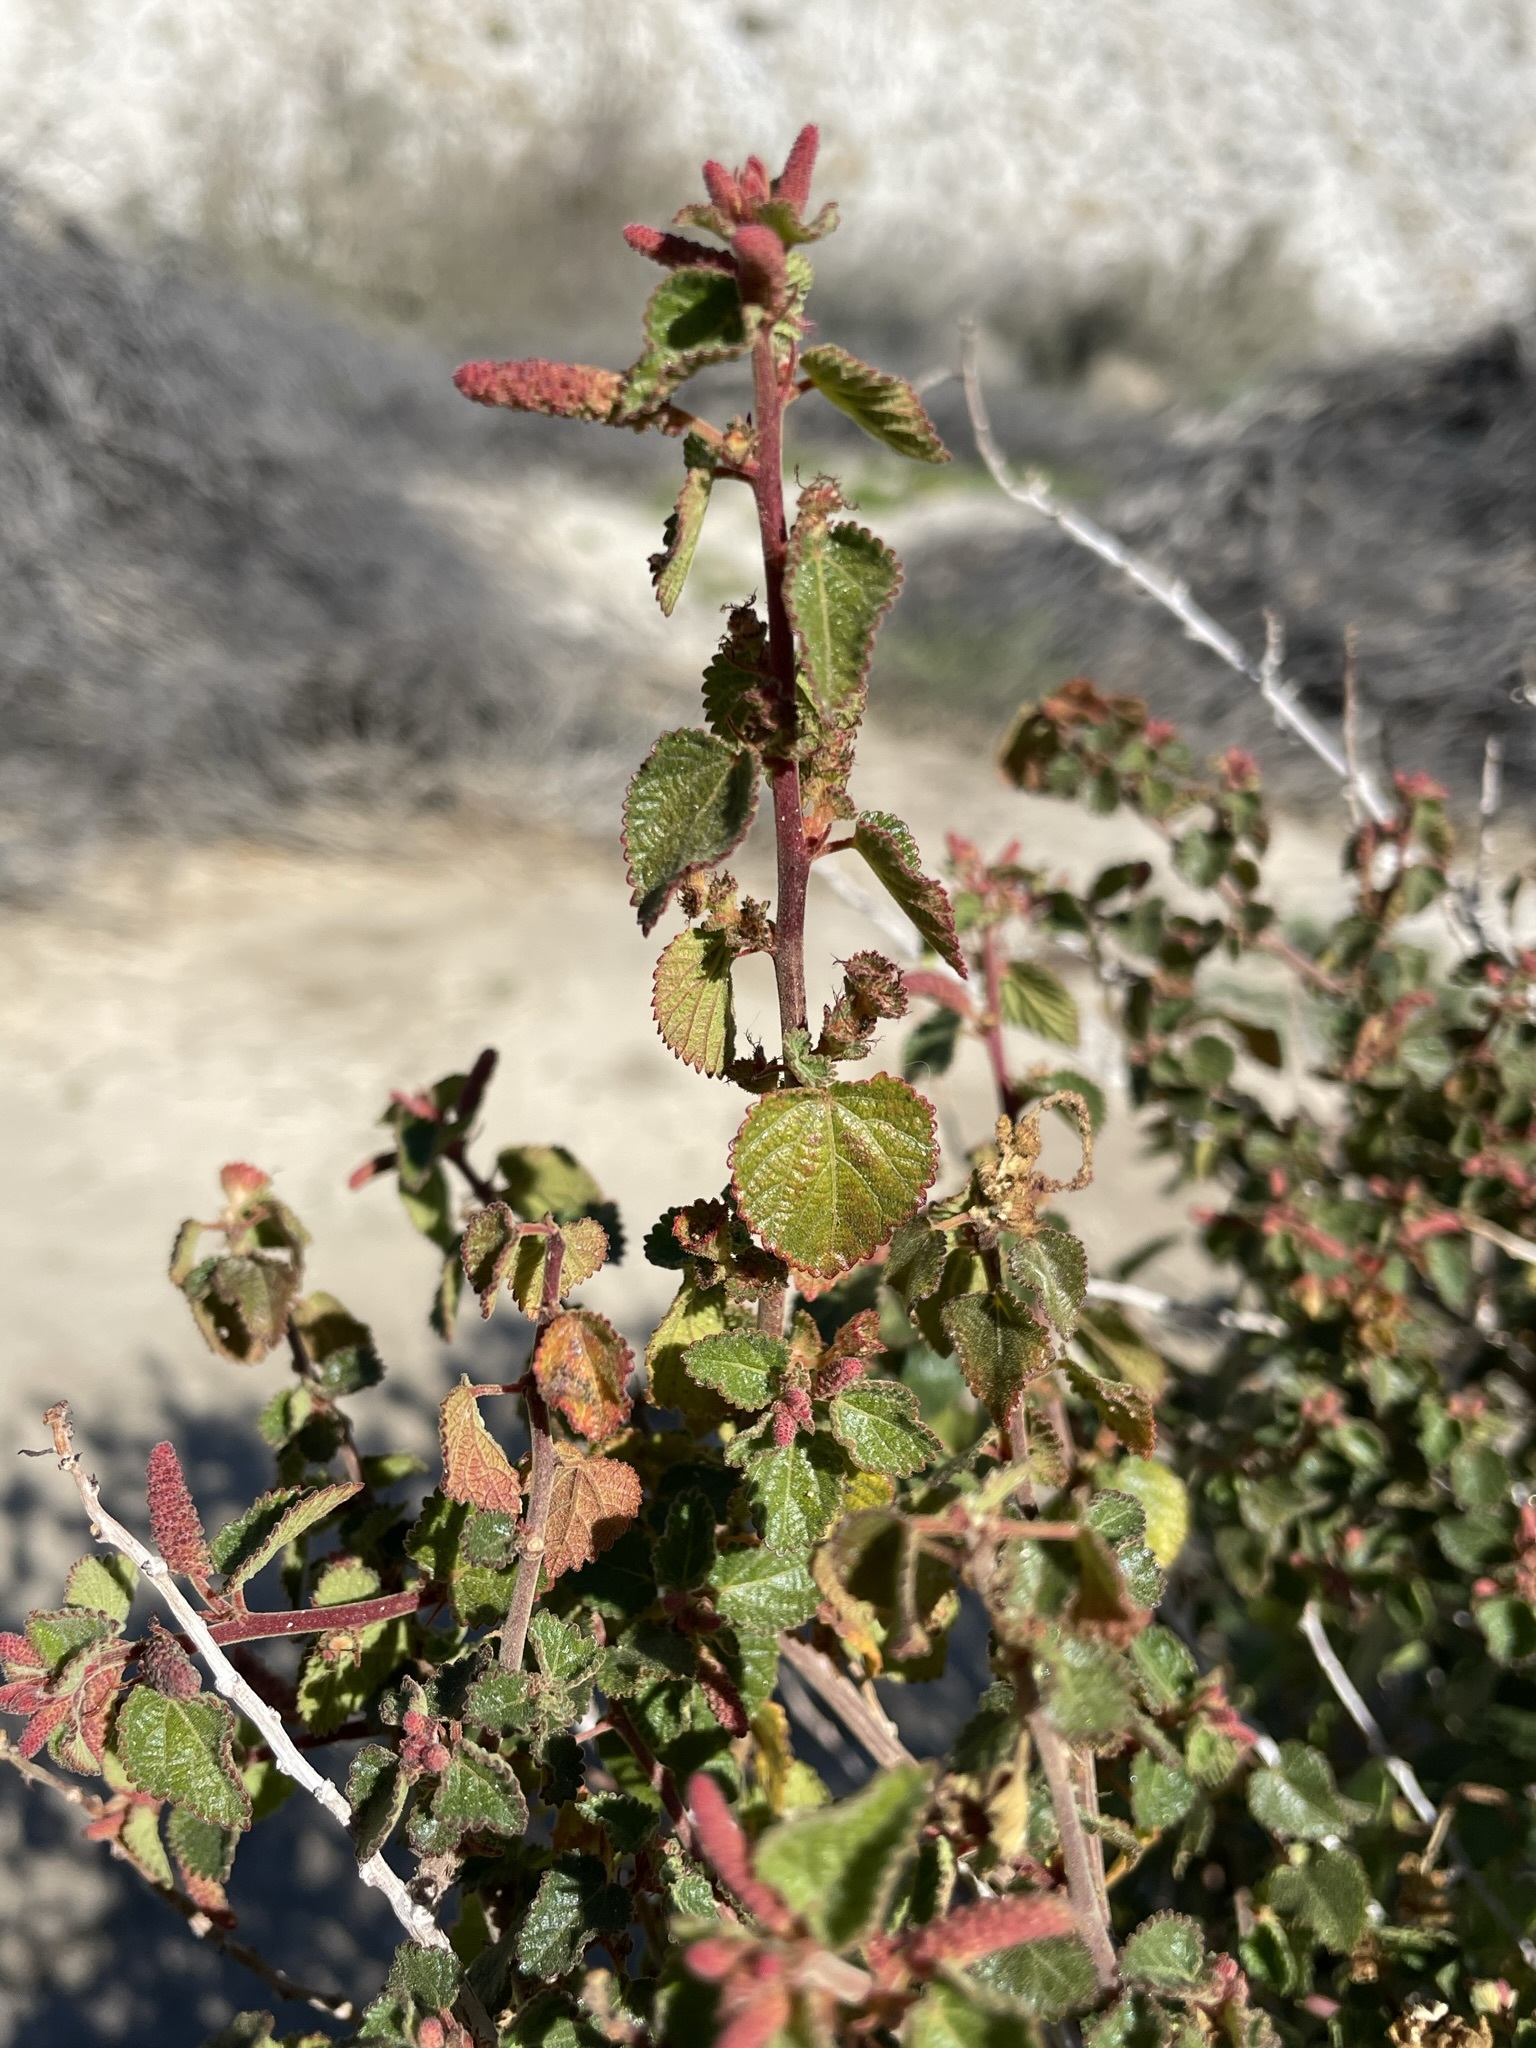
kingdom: Plantae
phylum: Tracheophyta
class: Magnoliopsida
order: Malpighiales
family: Euphorbiaceae
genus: Acalypha
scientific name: Acalypha californica
